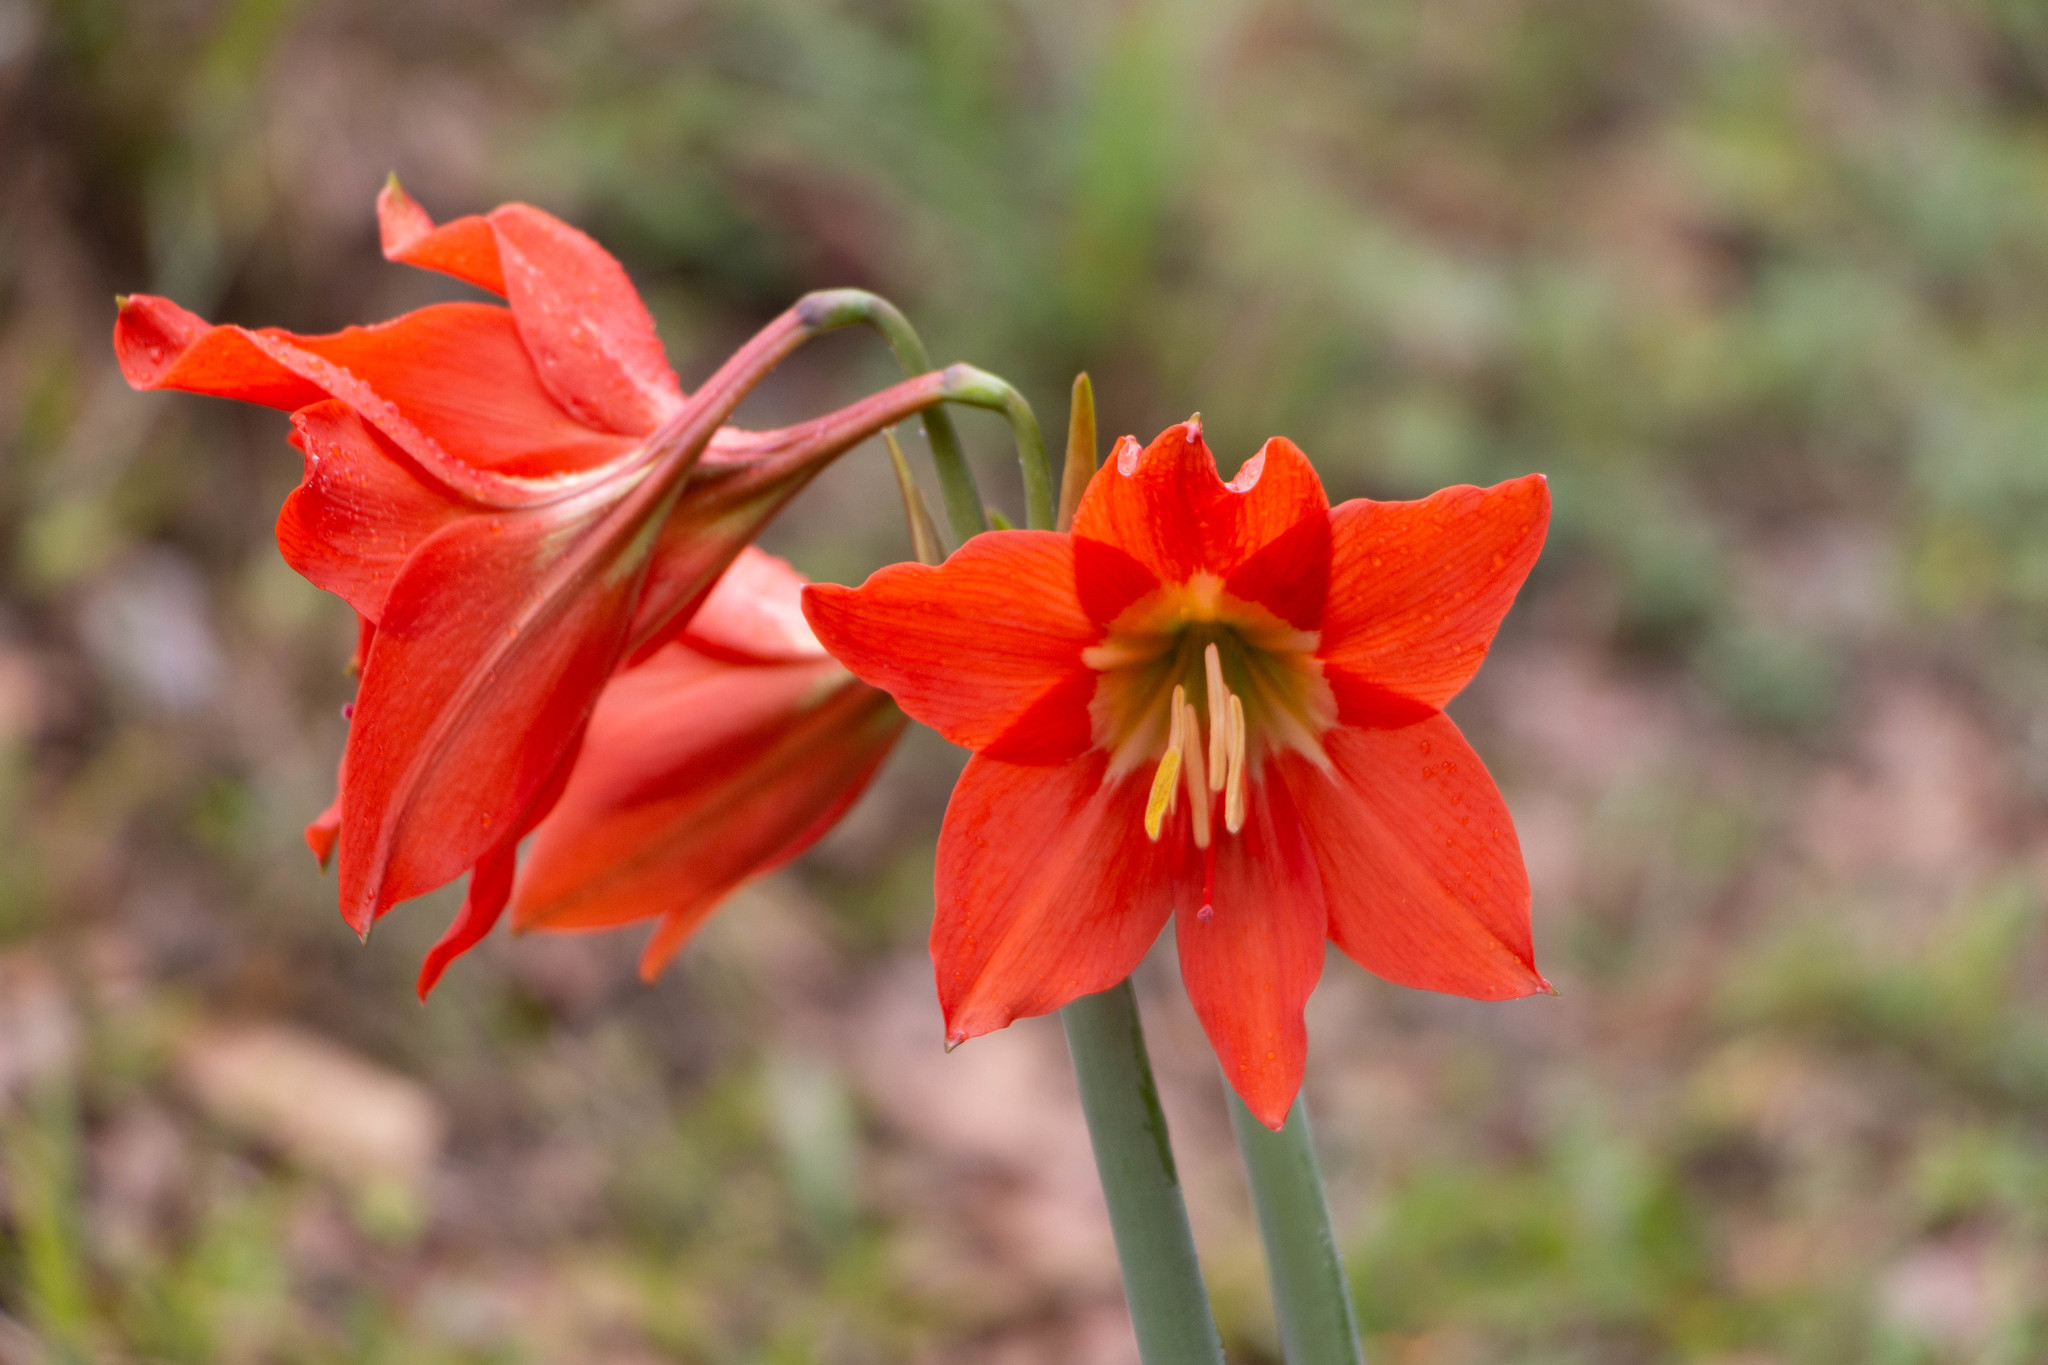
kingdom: Plantae
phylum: Tracheophyta
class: Liliopsida
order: Asparagales
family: Amaryllidaceae
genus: Hippeastrum
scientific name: Hippeastrum puniceum
